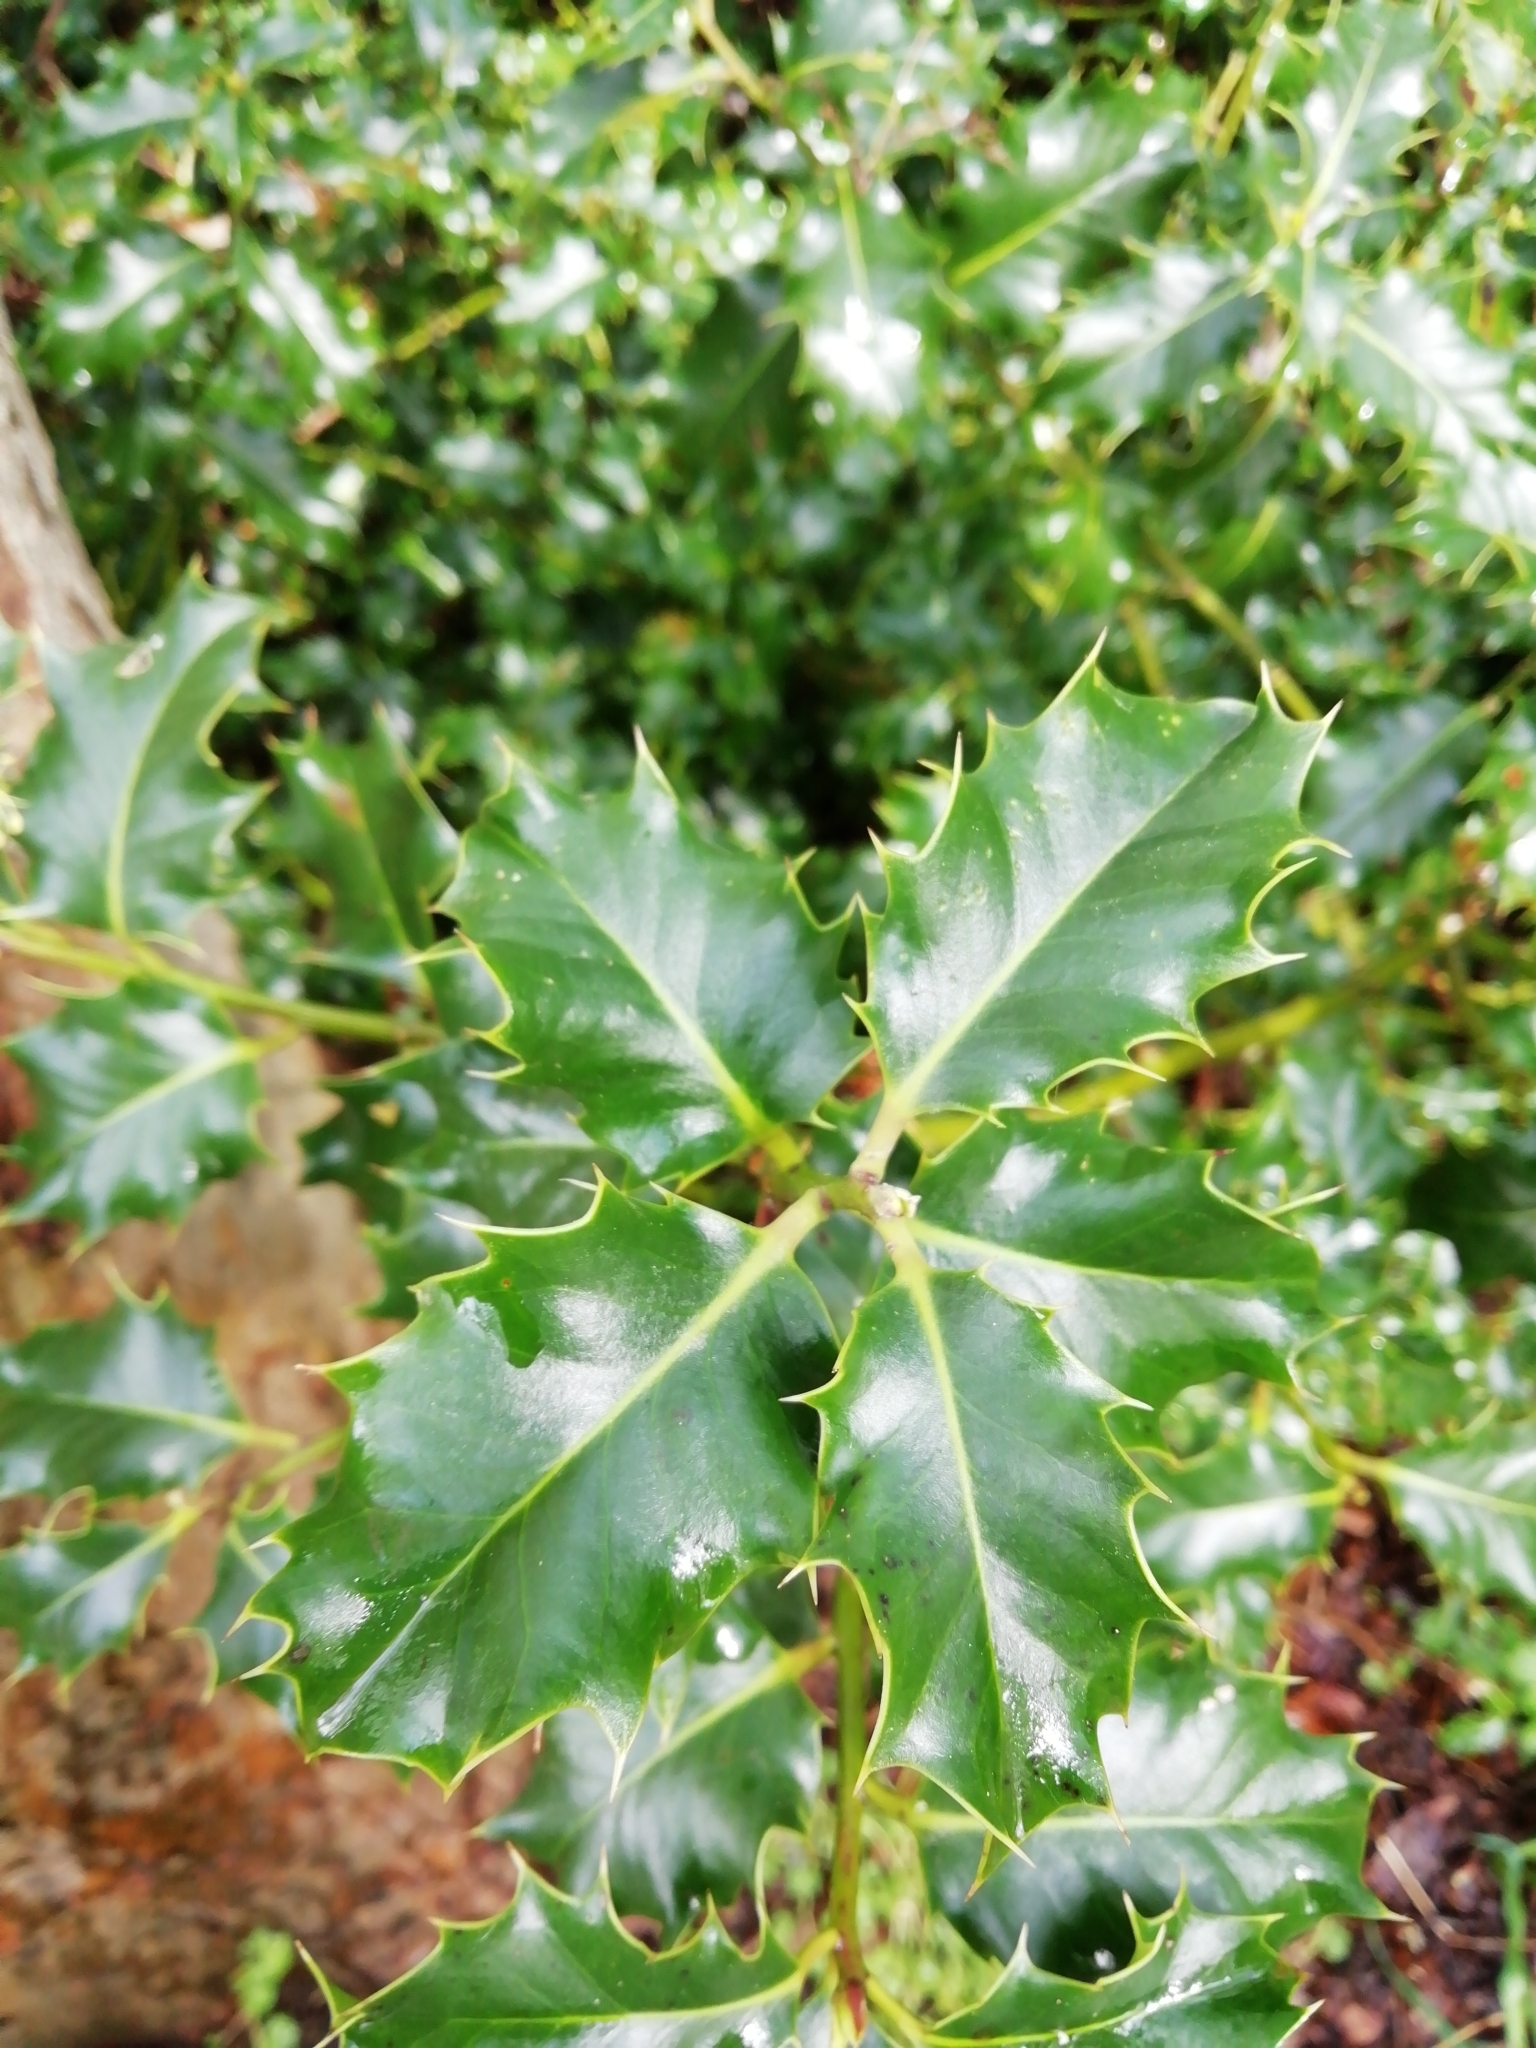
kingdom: Plantae
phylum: Tracheophyta
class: Magnoliopsida
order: Aquifoliales
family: Aquifoliaceae
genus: Ilex
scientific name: Ilex aquifolium
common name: English holly
